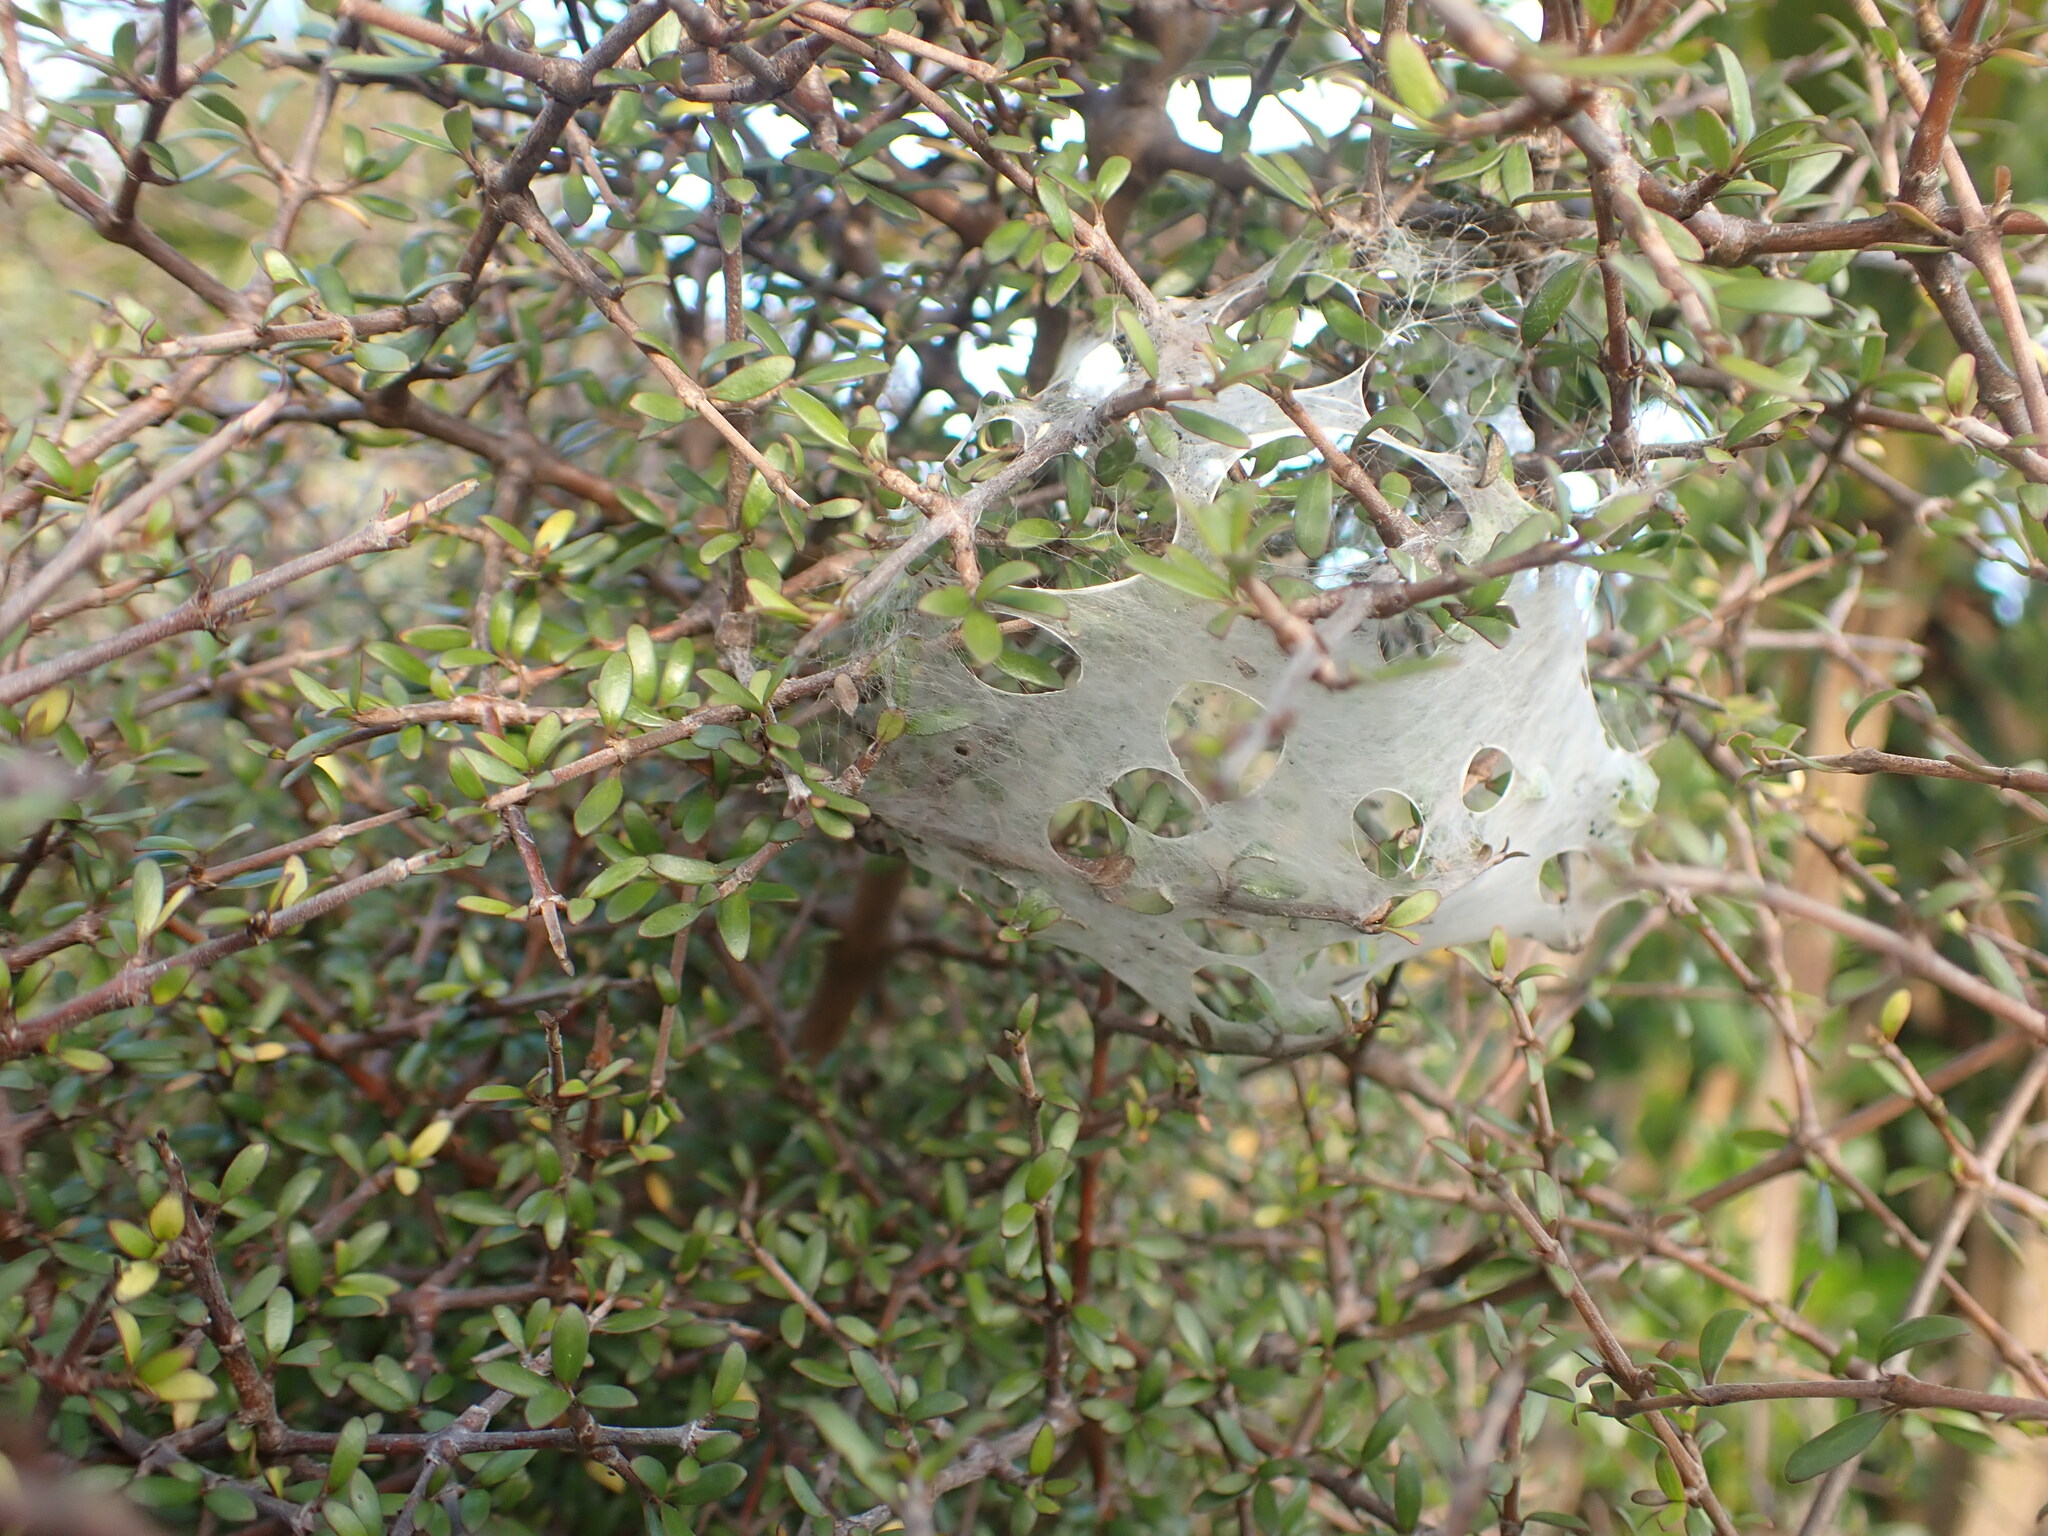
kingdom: Animalia
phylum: Arthropoda
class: Arachnida
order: Araneae
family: Pisauridae
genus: Dolomedes
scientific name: Dolomedes minor
